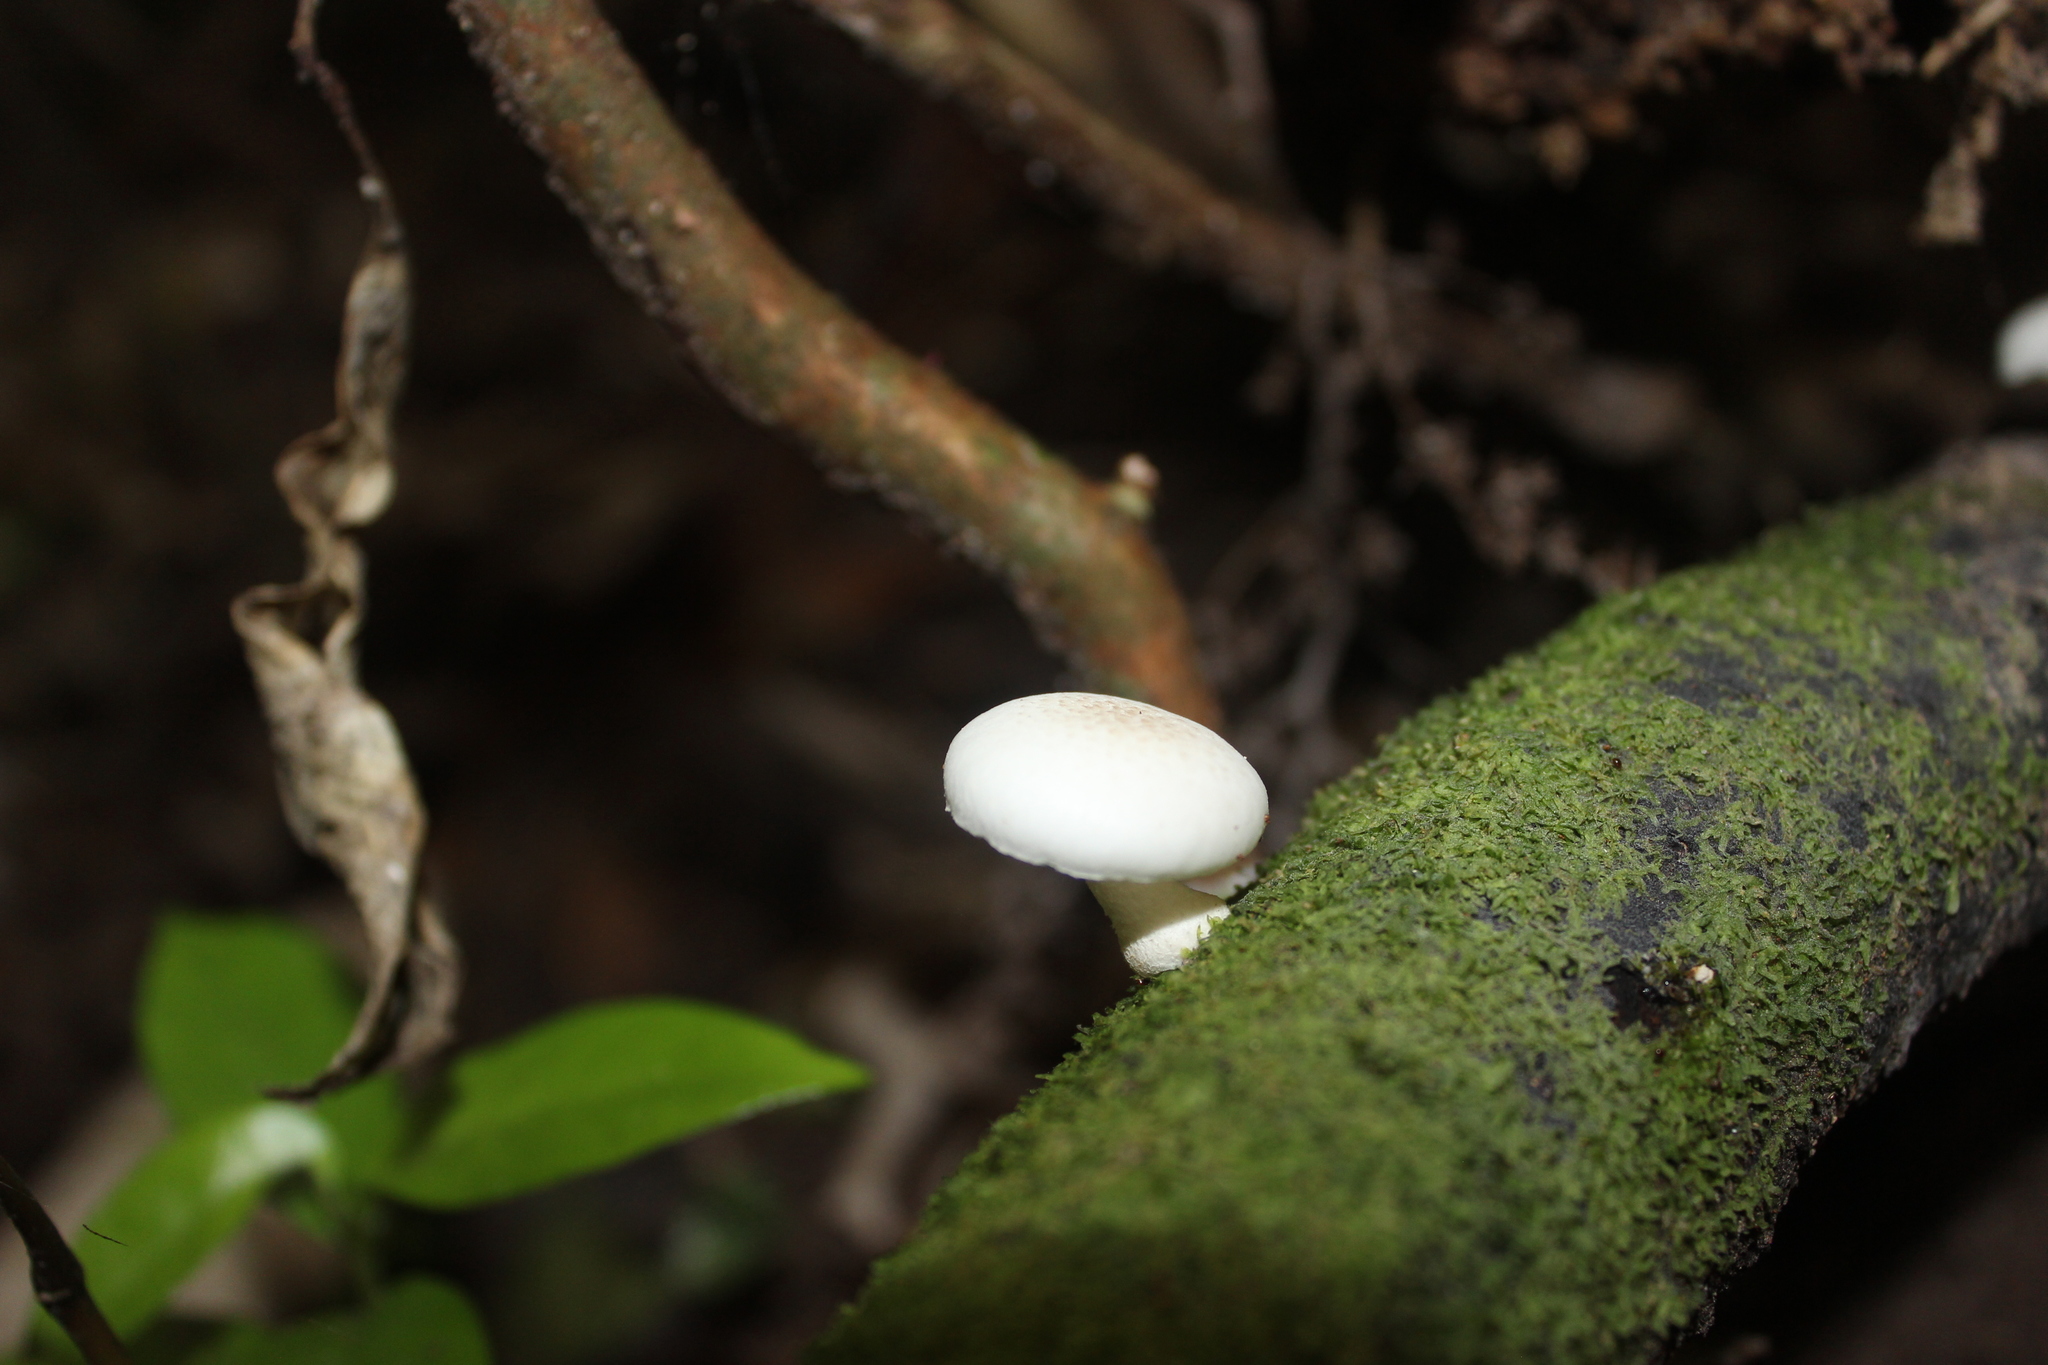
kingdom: Fungi
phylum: Basidiomycota
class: Agaricomycetes
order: Agaricales
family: Physalacriaceae
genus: Oudemansiella
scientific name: Oudemansiella australis
